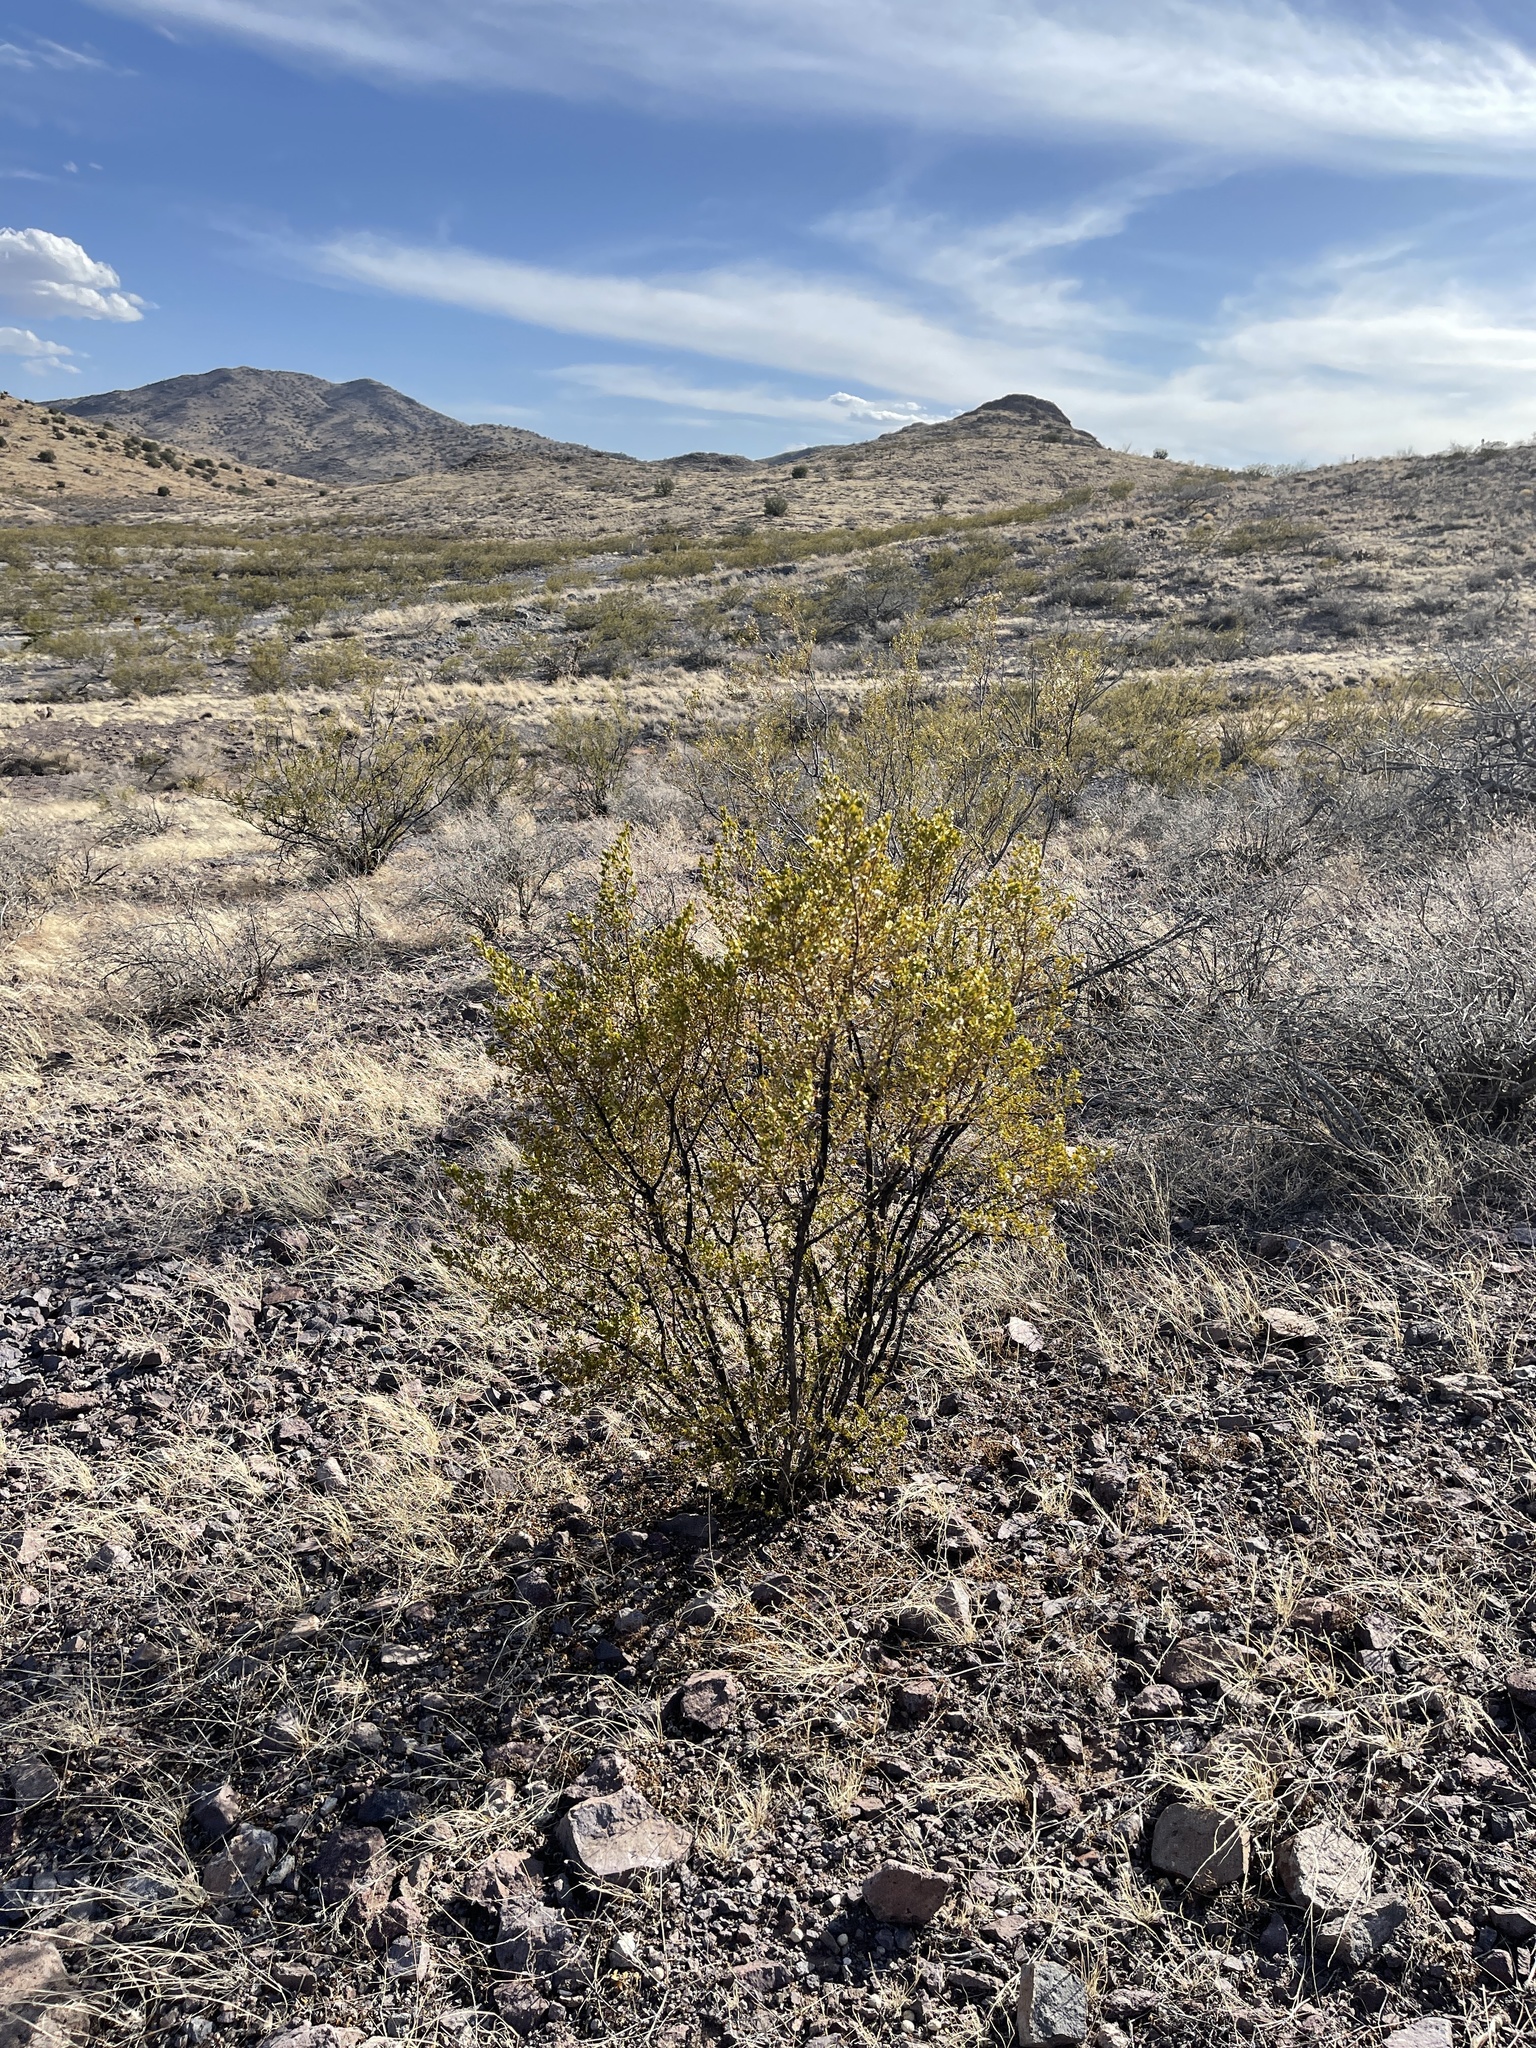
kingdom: Plantae
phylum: Tracheophyta
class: Magnoliopsida
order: Zygophyllales
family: Zygophyllaceae
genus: Larrea
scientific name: Larrea tridentata
